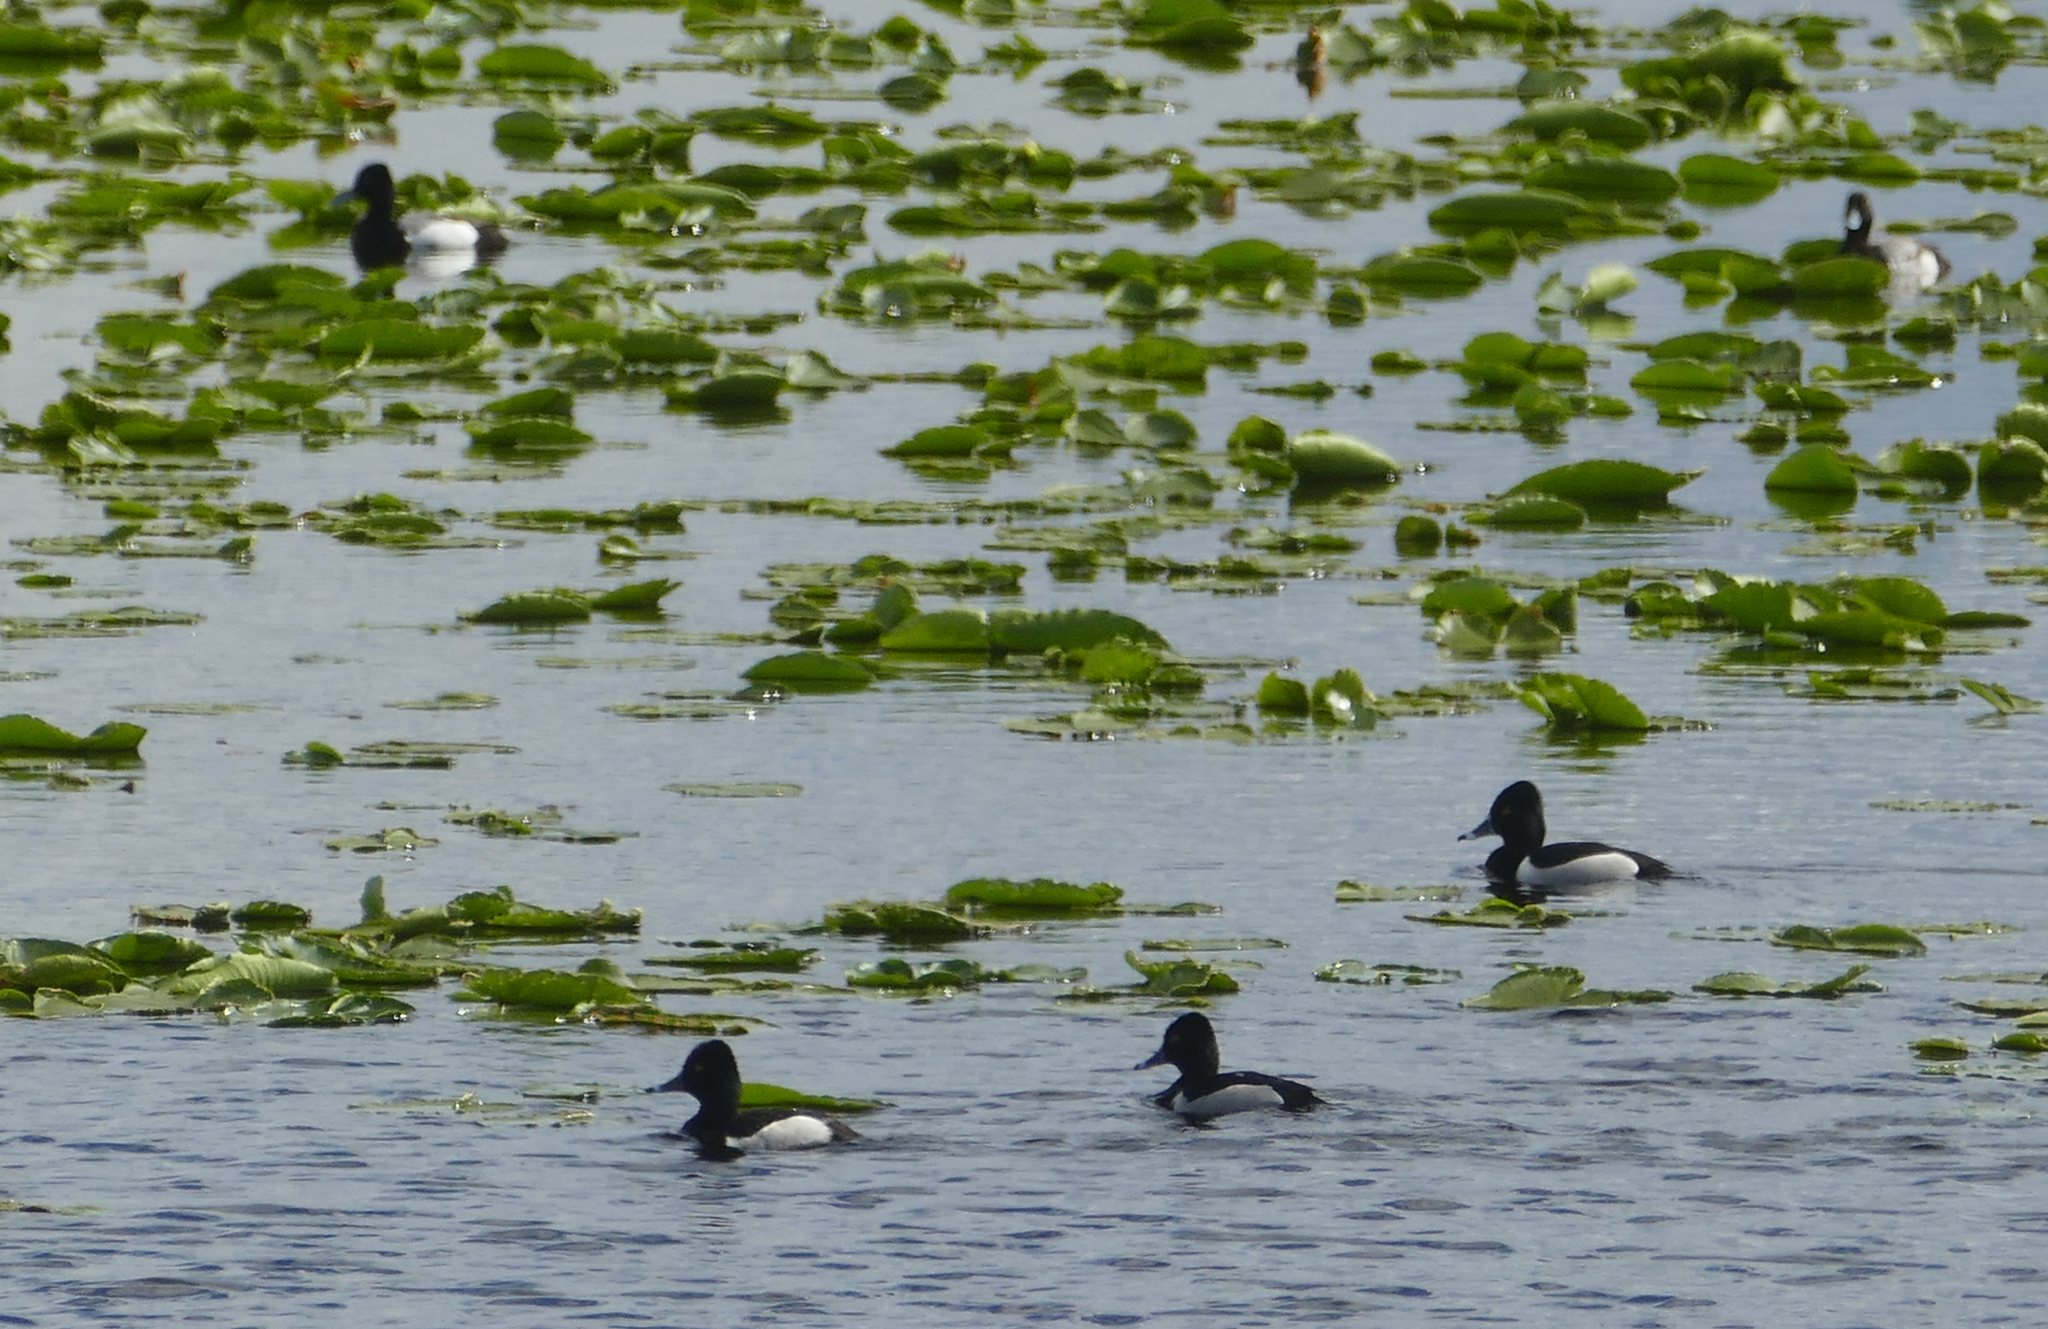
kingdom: Animalia
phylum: Chordata
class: Aves
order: Anseriformes
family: Anatidae
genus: Aythya
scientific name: Aythya collaris
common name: Ring-necked duck
